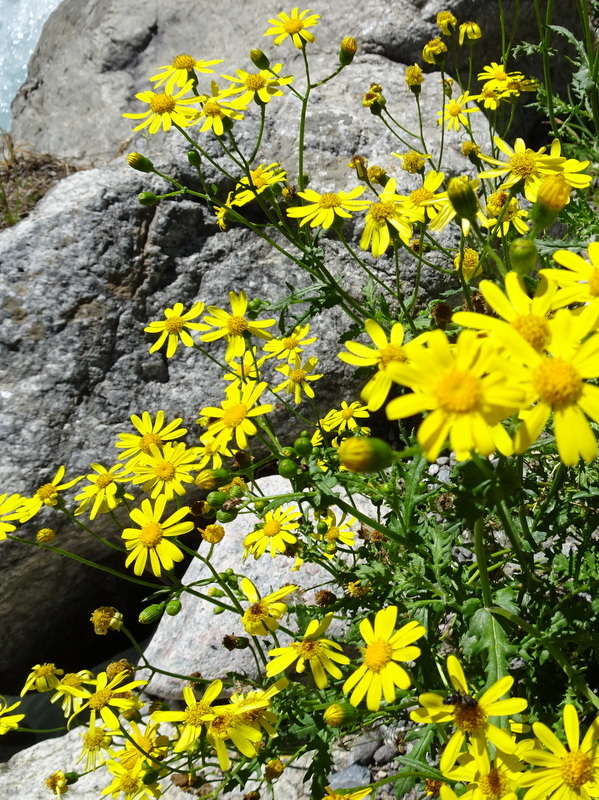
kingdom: Plantae
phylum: Tracheophyta
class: Magnoliopsida
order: Asterales
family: Asteraceae
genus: Senecio
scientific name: Senecio inaequidens
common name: Narrow-leaved ragwort
